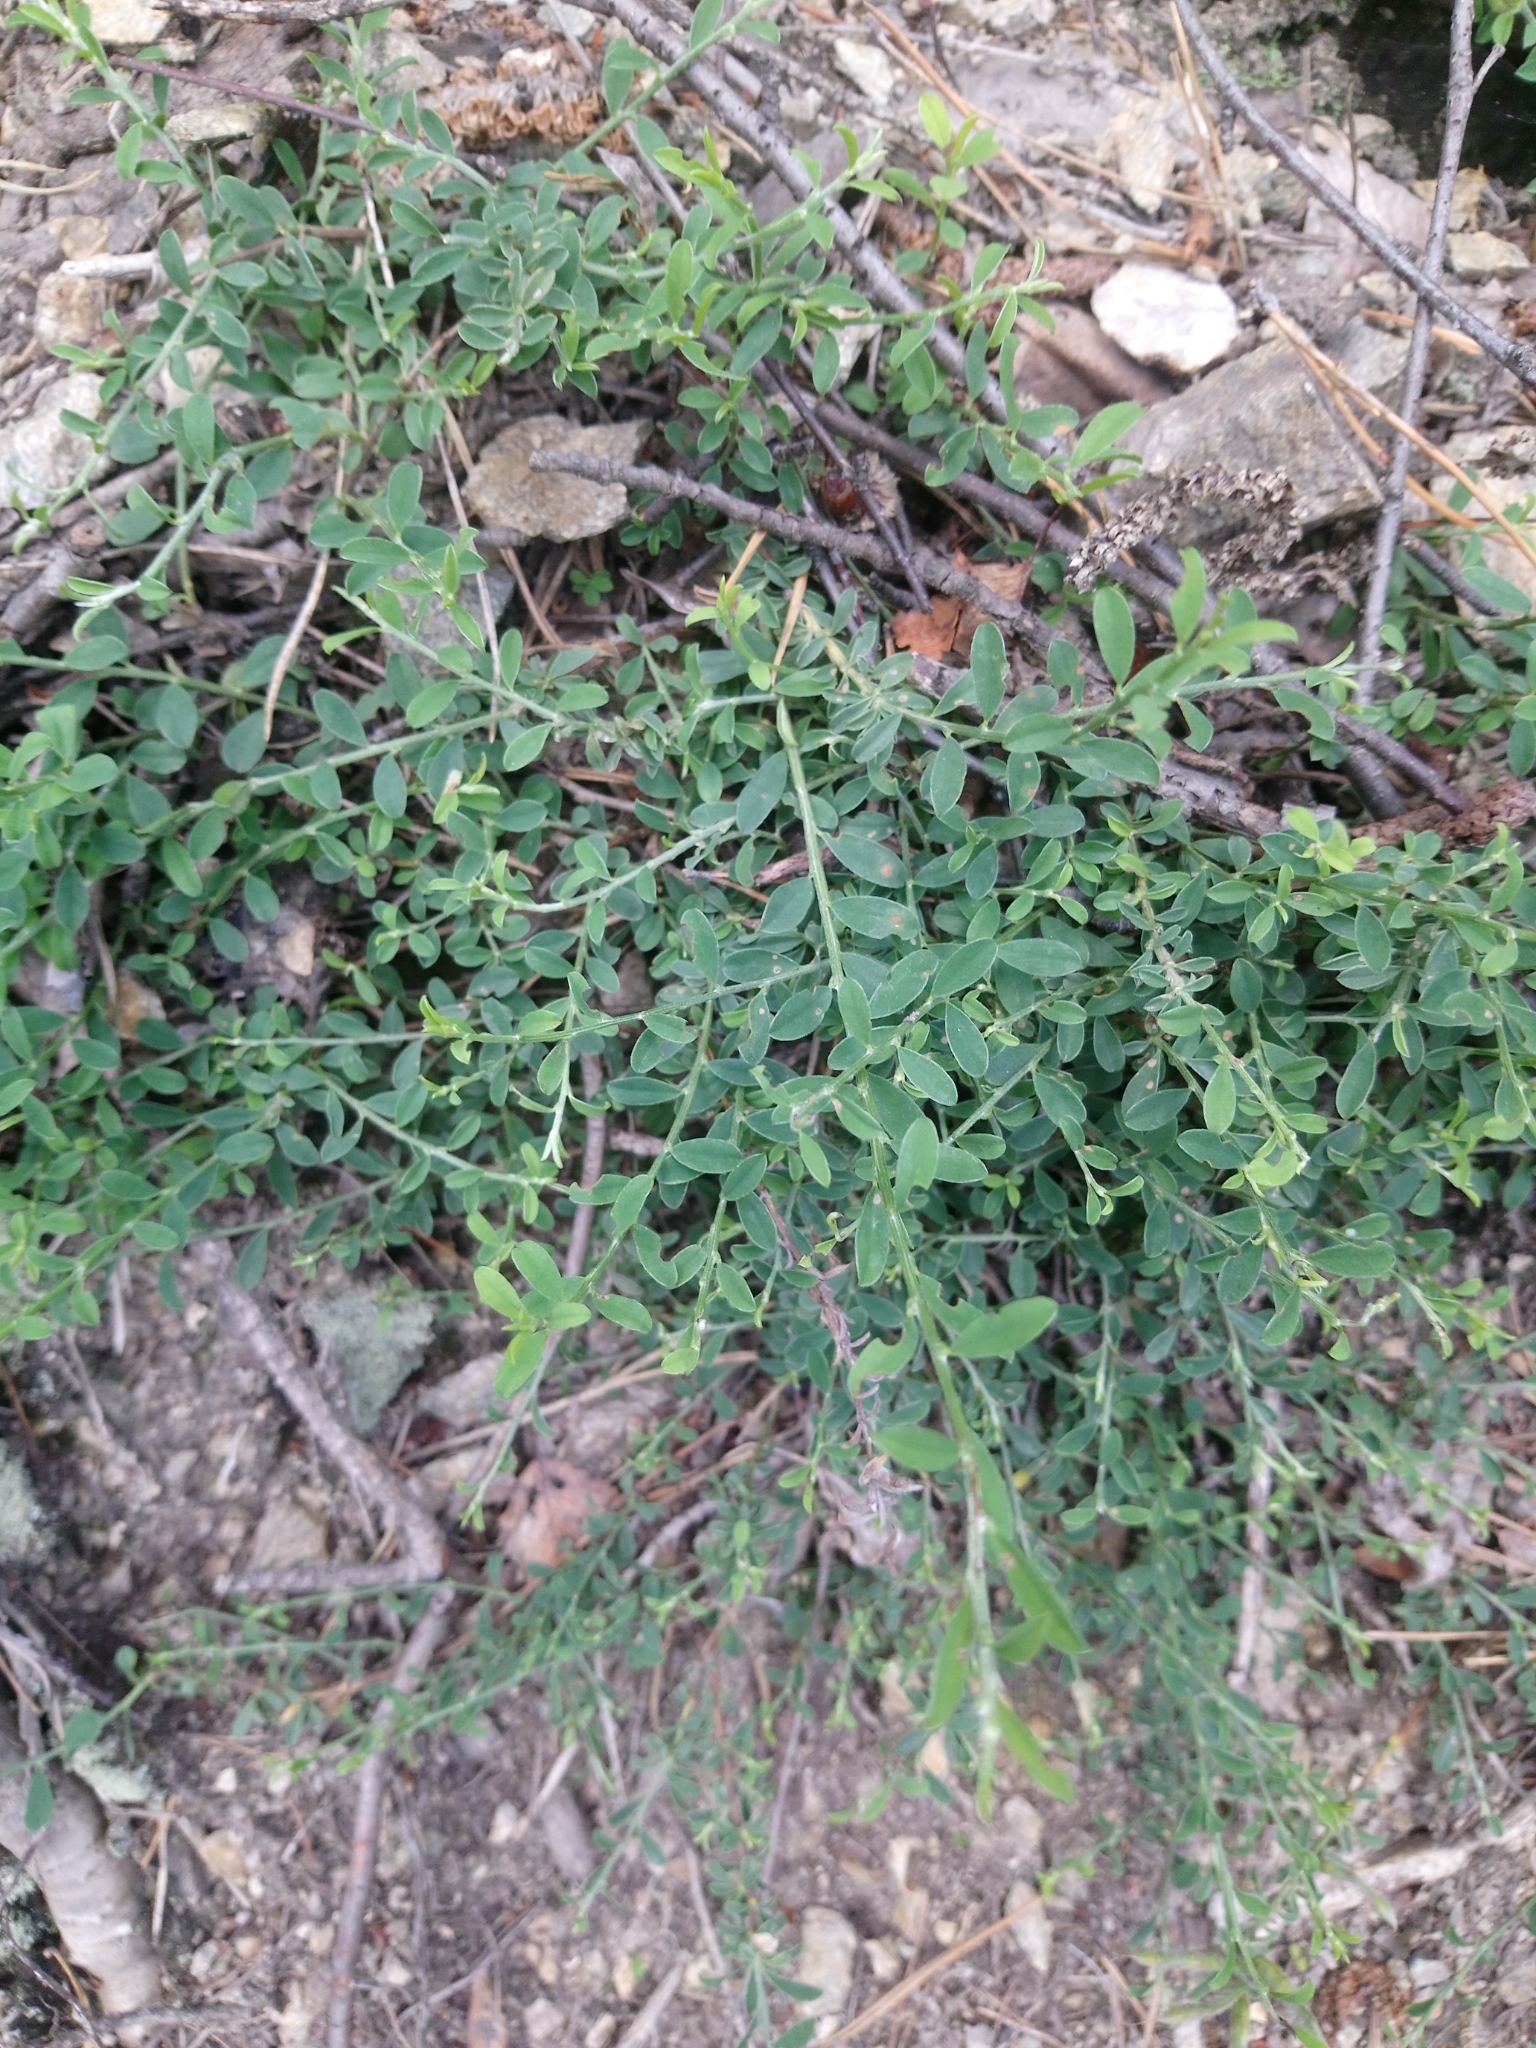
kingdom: Plantae
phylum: Tracheophyta
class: Magnoliopsida
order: Fabales
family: Fabaceae
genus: Genista
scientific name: Genista pilosa
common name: Hairy greenweed
